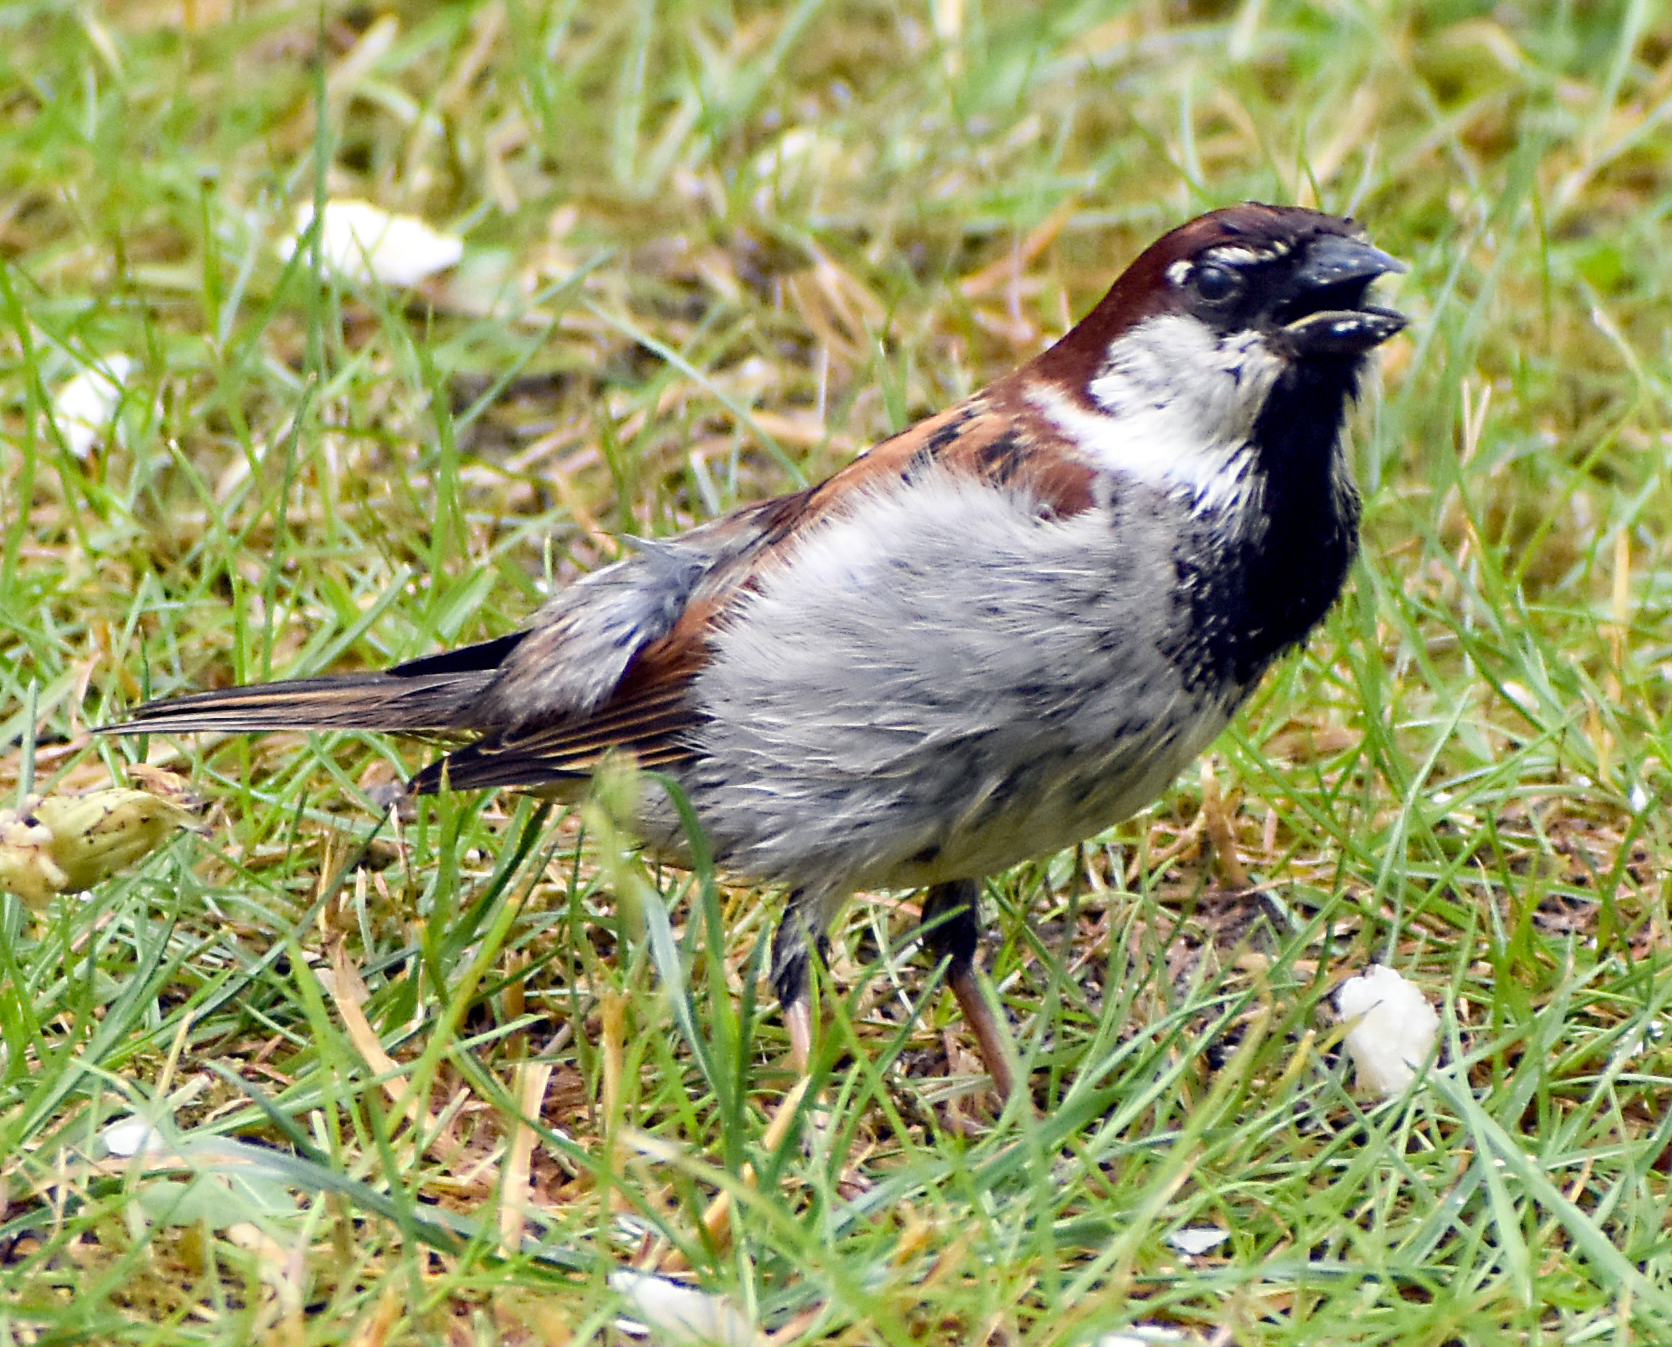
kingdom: Animalia
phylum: Chordata
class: Aves
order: Passeriformes
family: Passeridae
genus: Passer
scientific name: Passer italiae
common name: Italian sparrow
